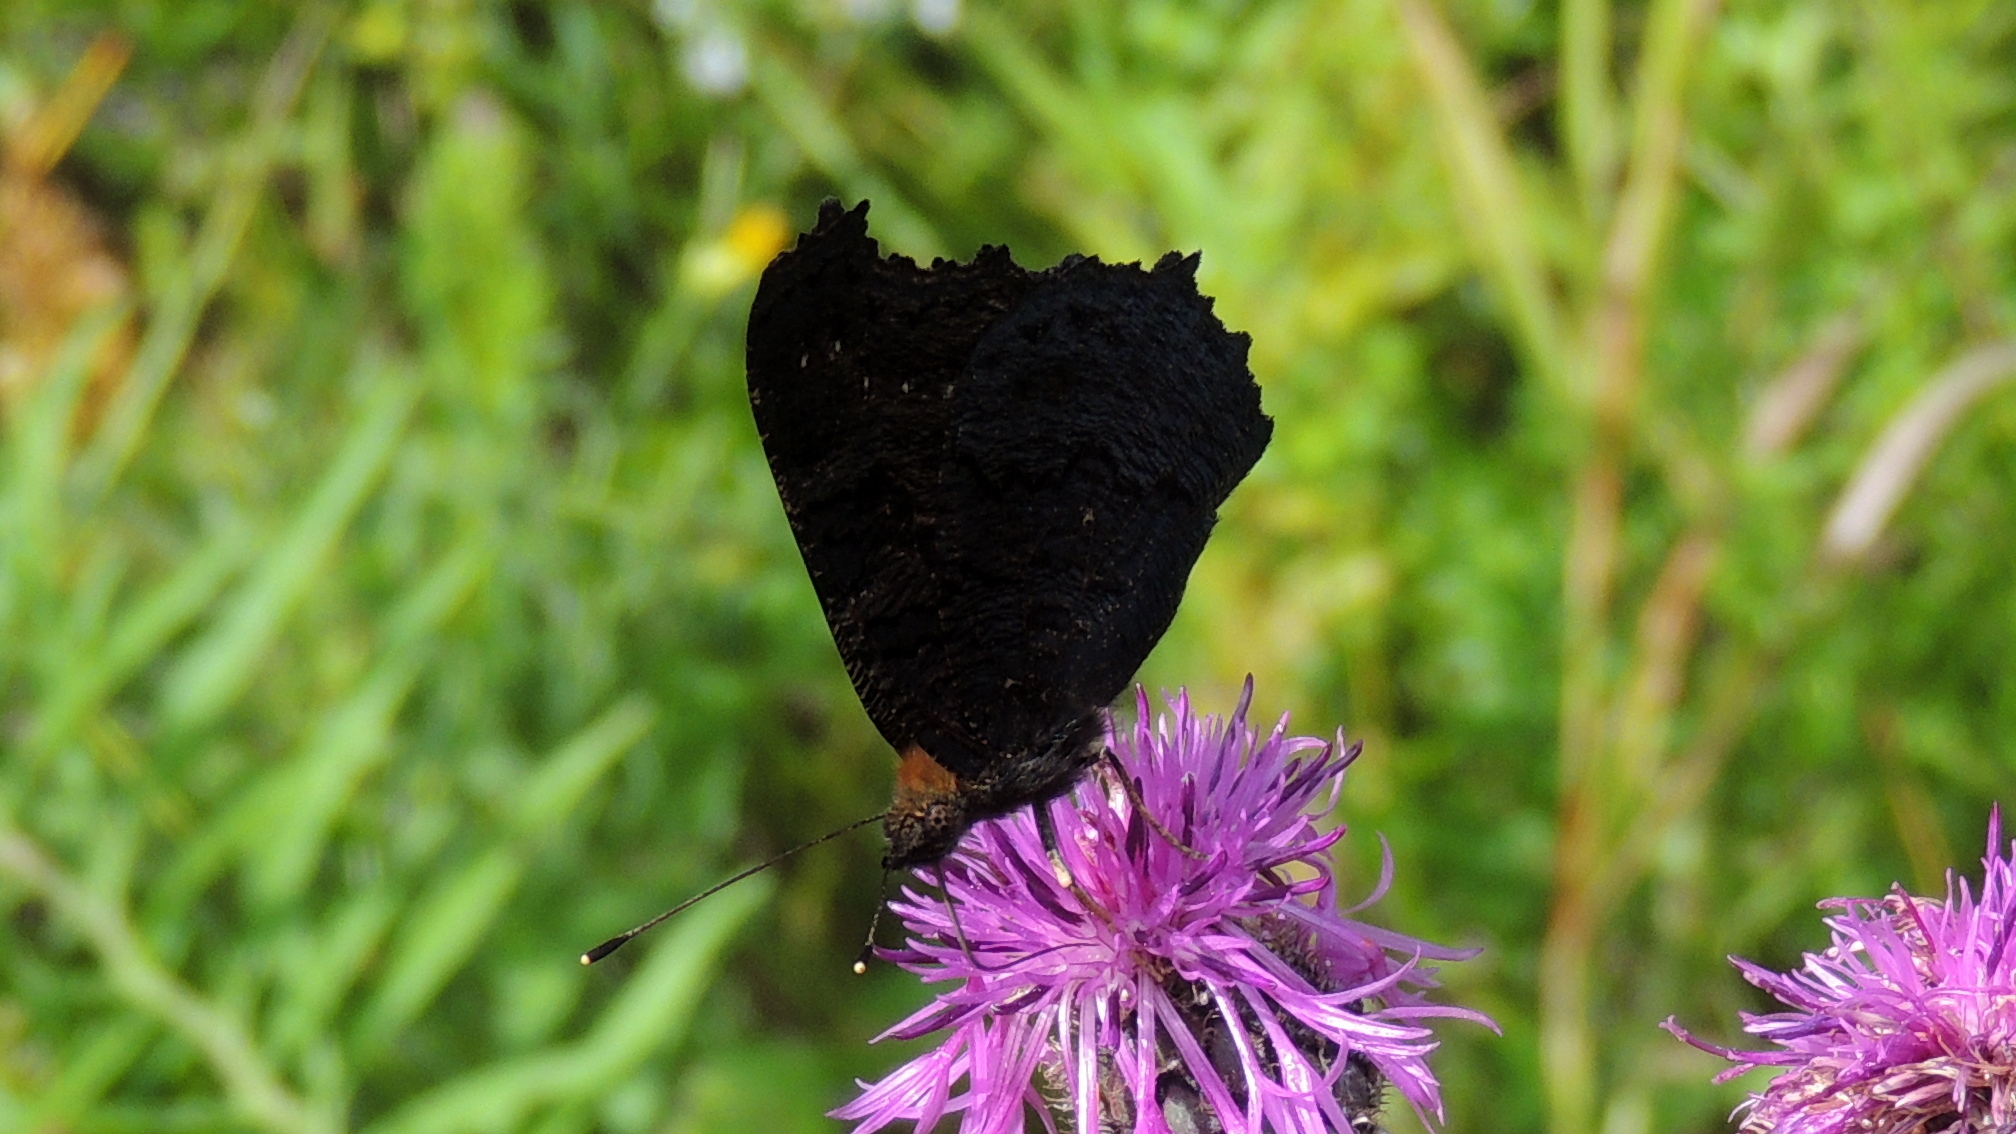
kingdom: Animalia
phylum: Arthropoda
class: Insecta
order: Lepidoptera
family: Nymphalidae
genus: Aglais
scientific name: Aglais io
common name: Peacock
